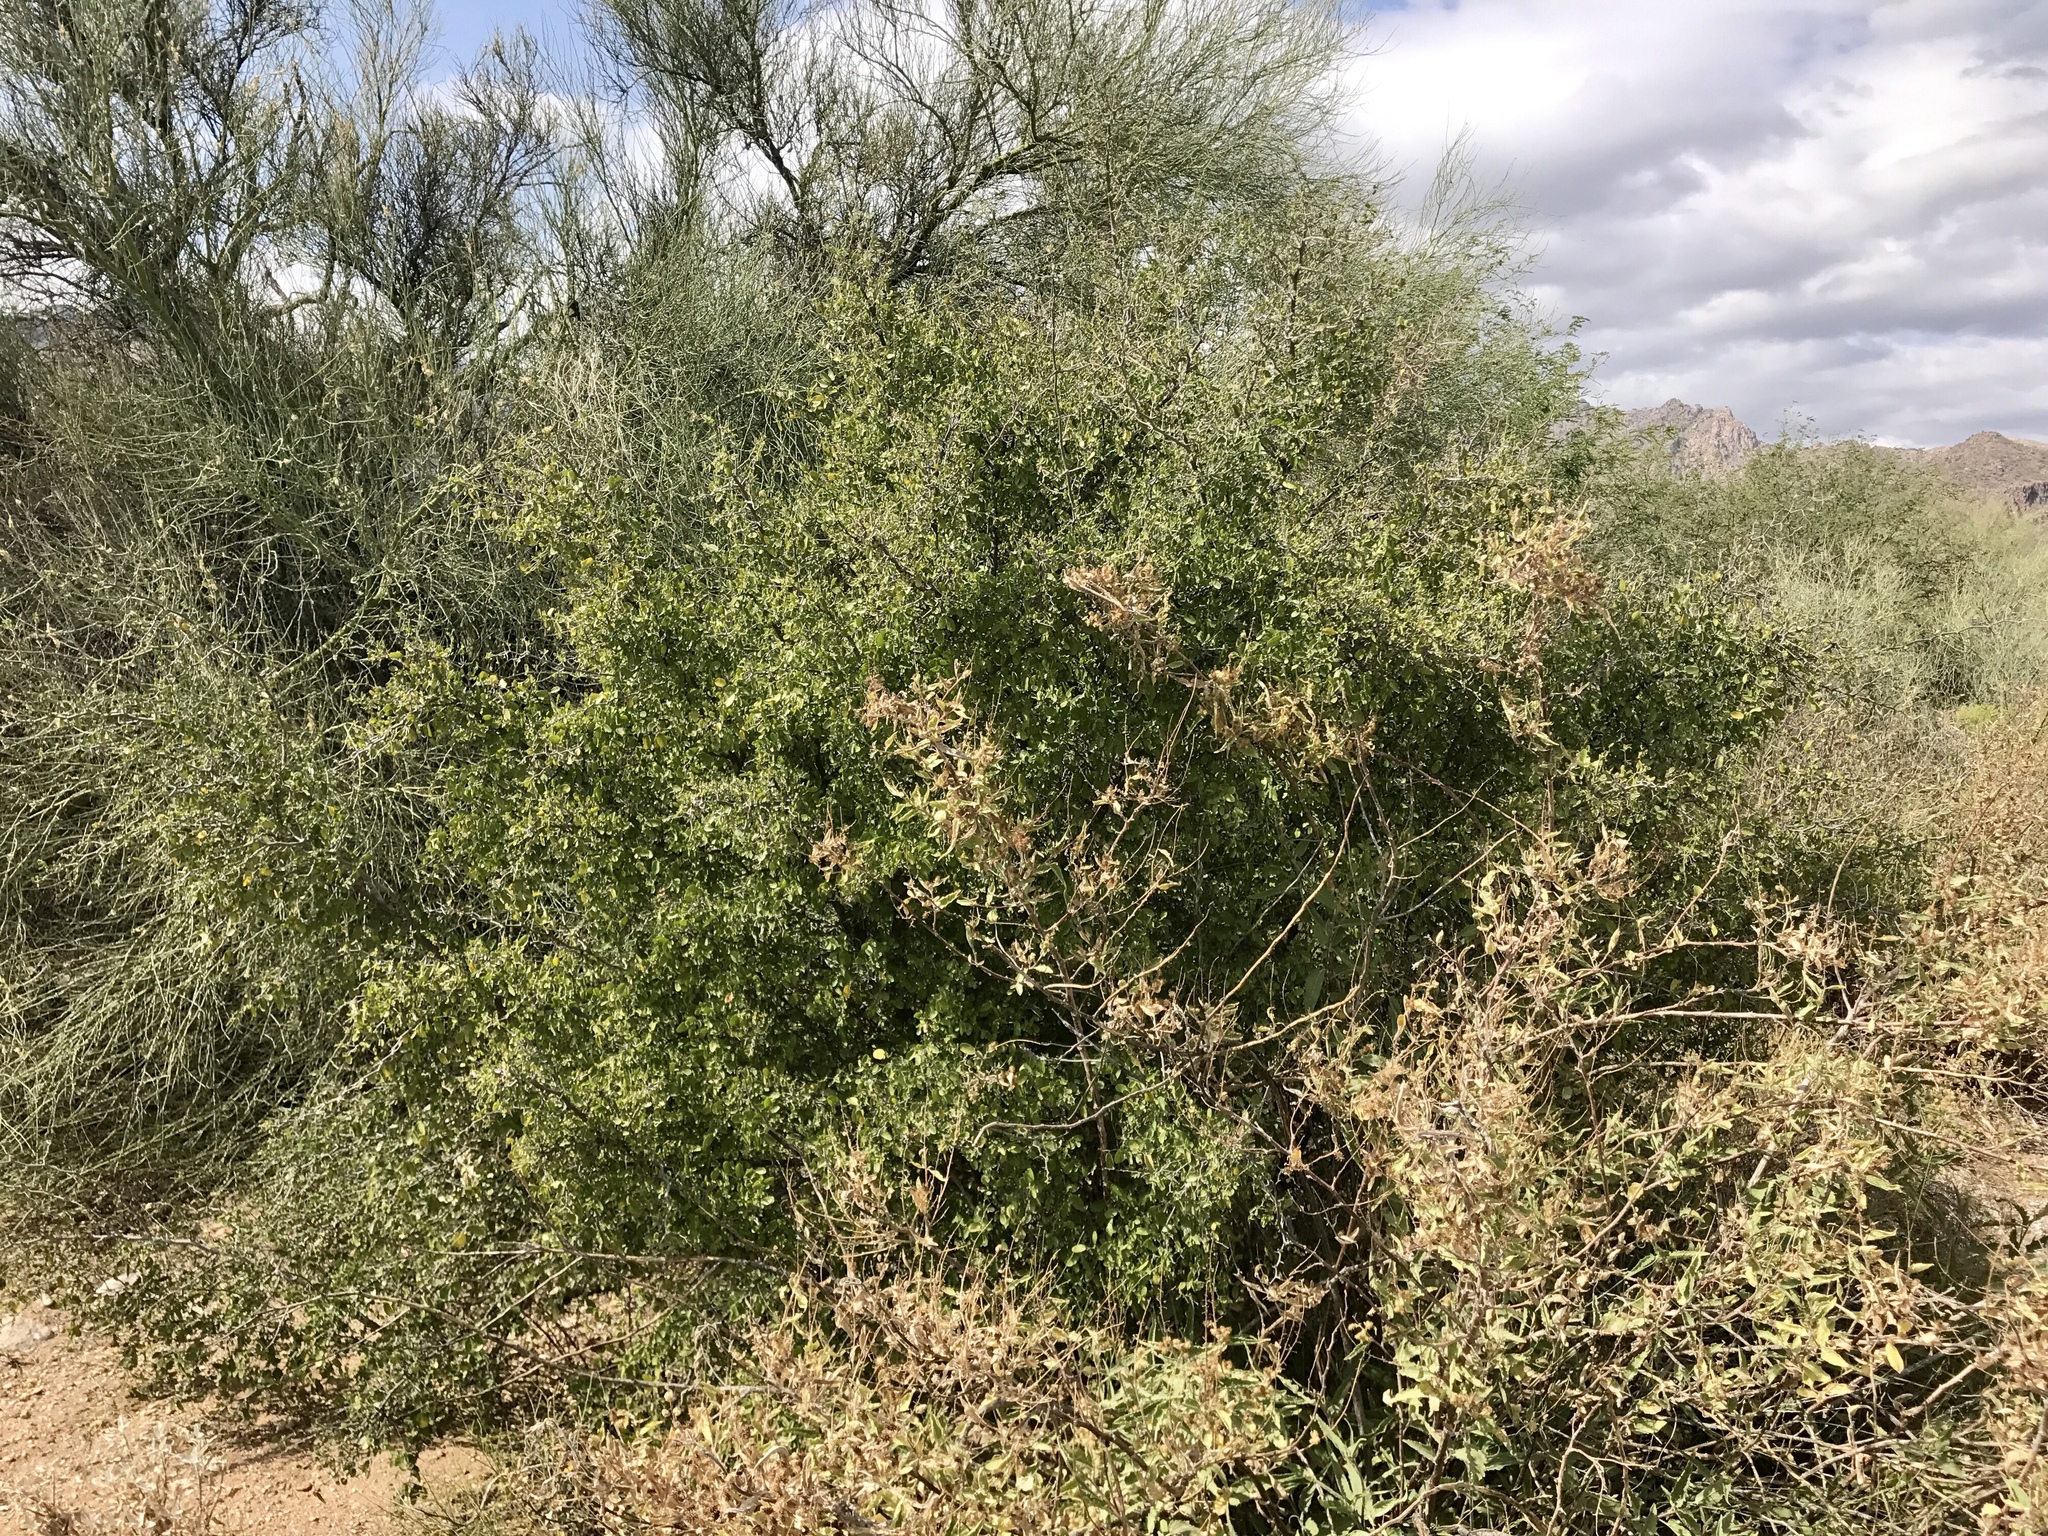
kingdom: Plantae
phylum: Tracheophyta
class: Magnoliopsida
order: Rosales
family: Cannabaceae
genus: Celtis
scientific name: Celtis pallida
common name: Desert hackberry
